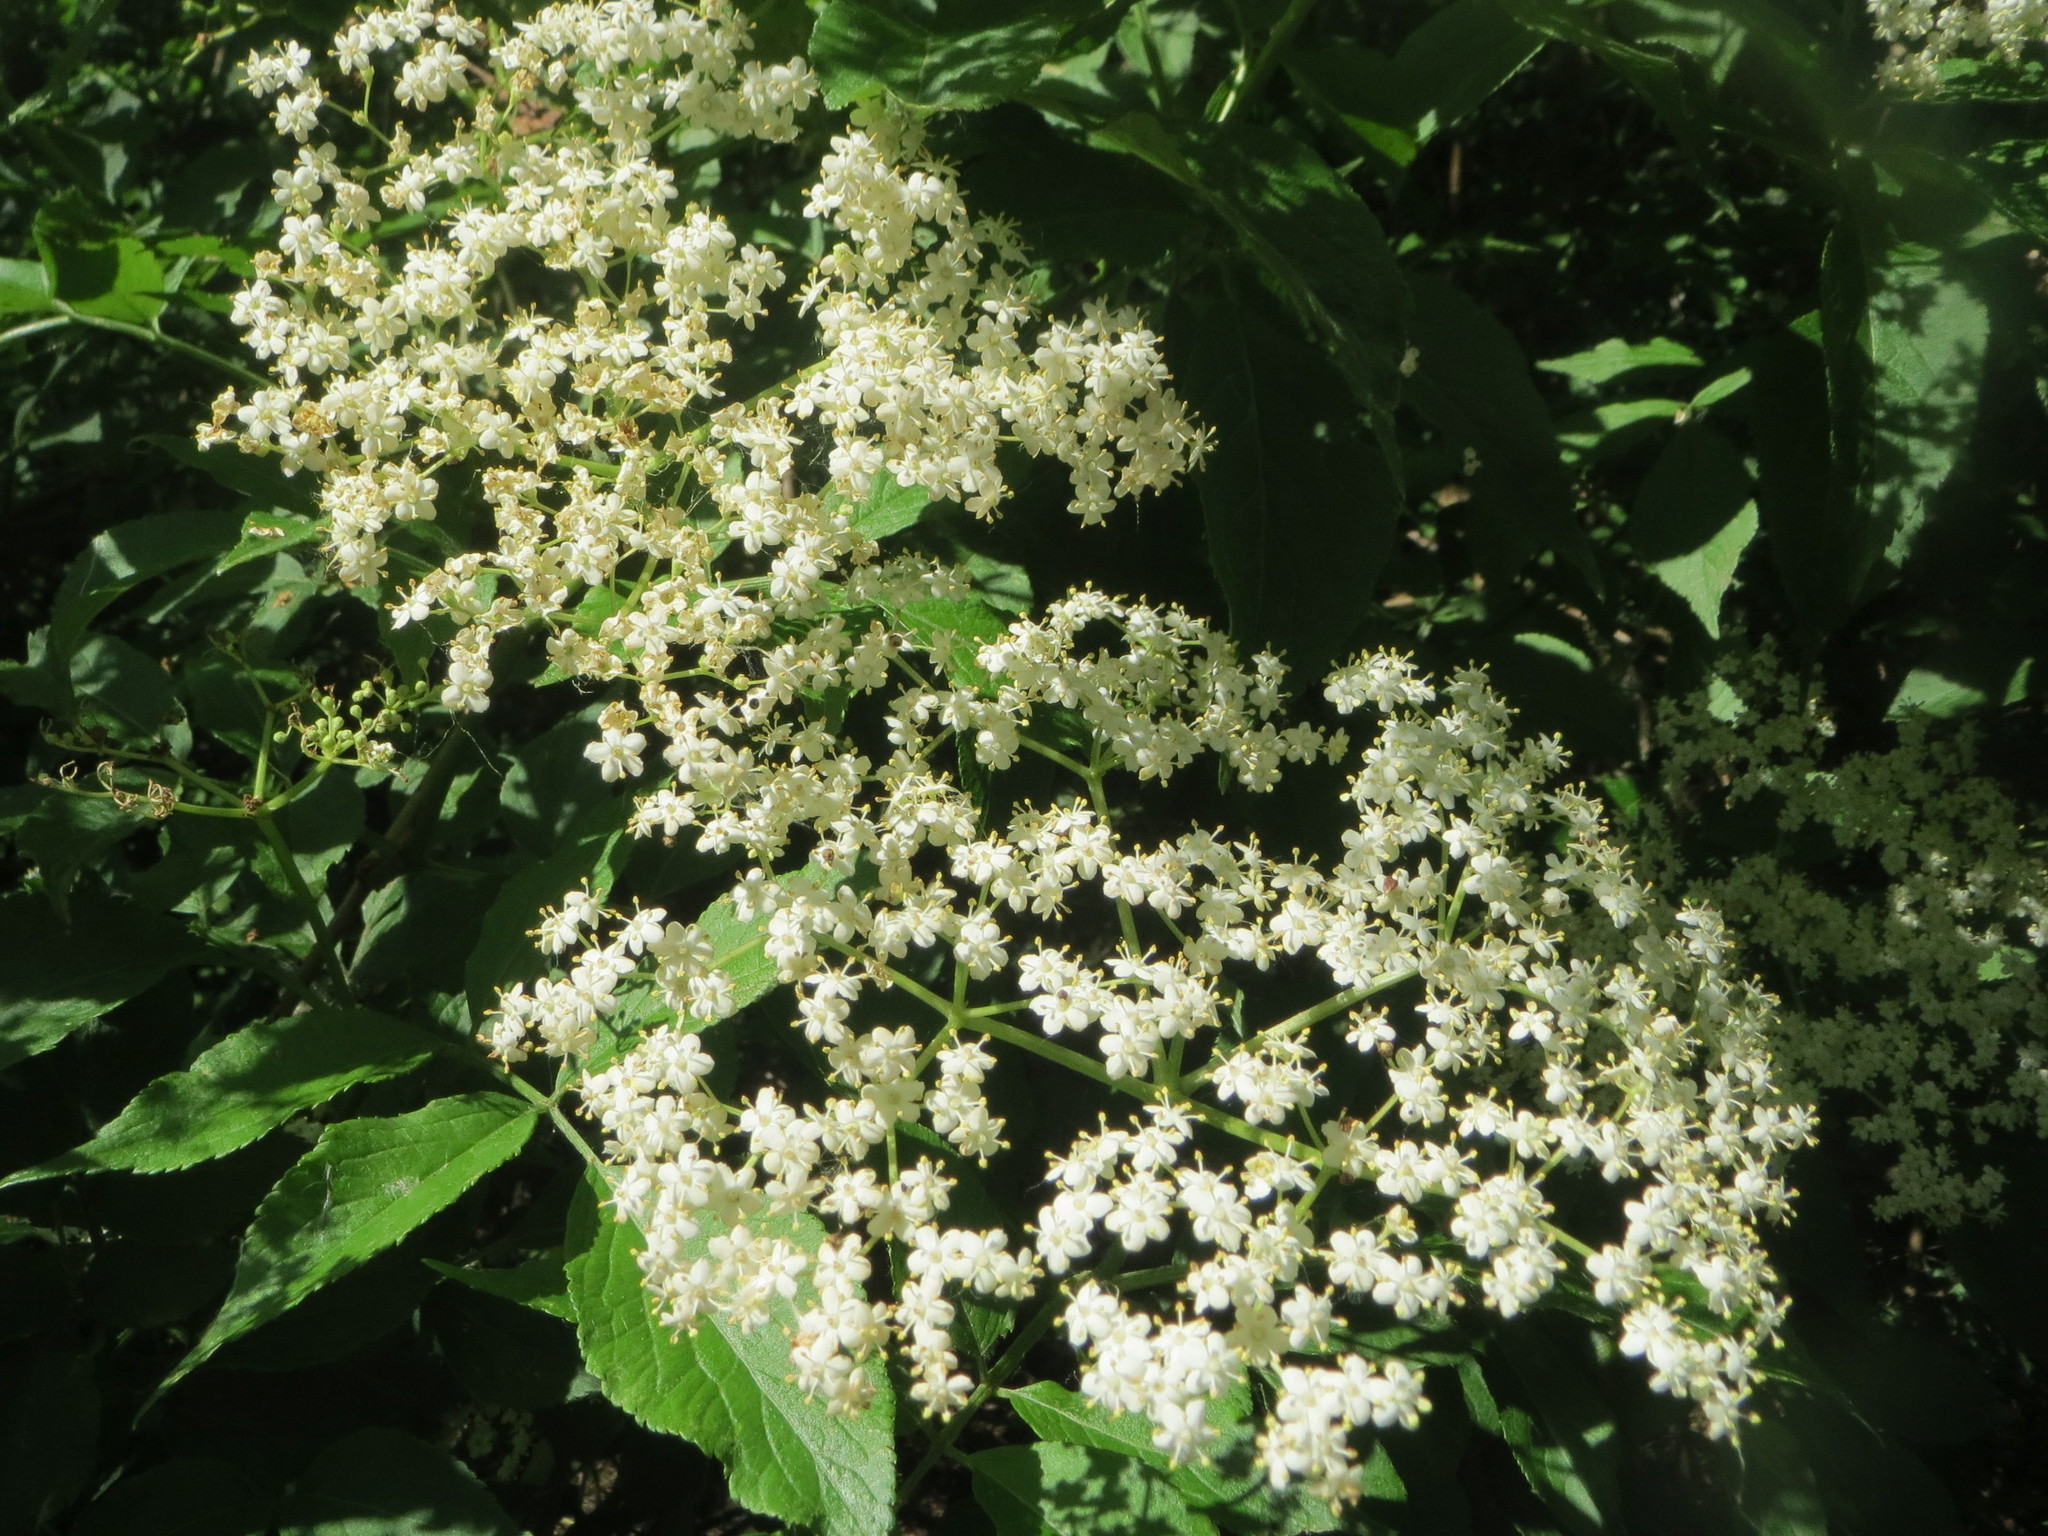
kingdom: Plantae
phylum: Tracheophyta
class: Magnoliopsida
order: Dipsacales
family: Viburnaceae
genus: Sambucus
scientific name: Sambucus nigra
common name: Elder
